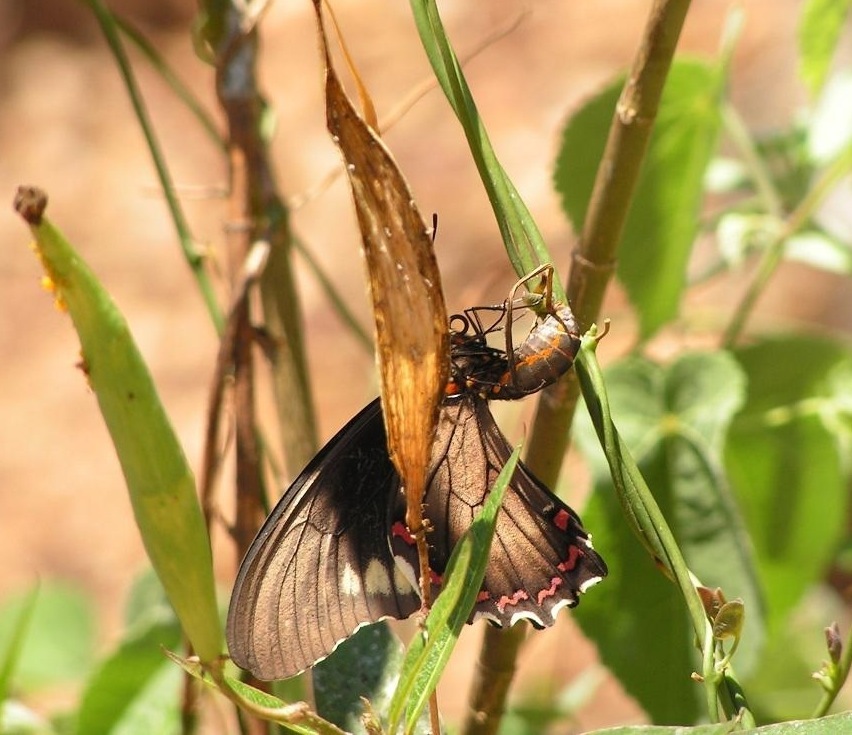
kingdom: Animalia
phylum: Arthropoda
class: Insecta
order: Lepidoptera
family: Papilionidae
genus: Battus
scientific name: Battus polydamas
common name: Polydamas swallowtail
